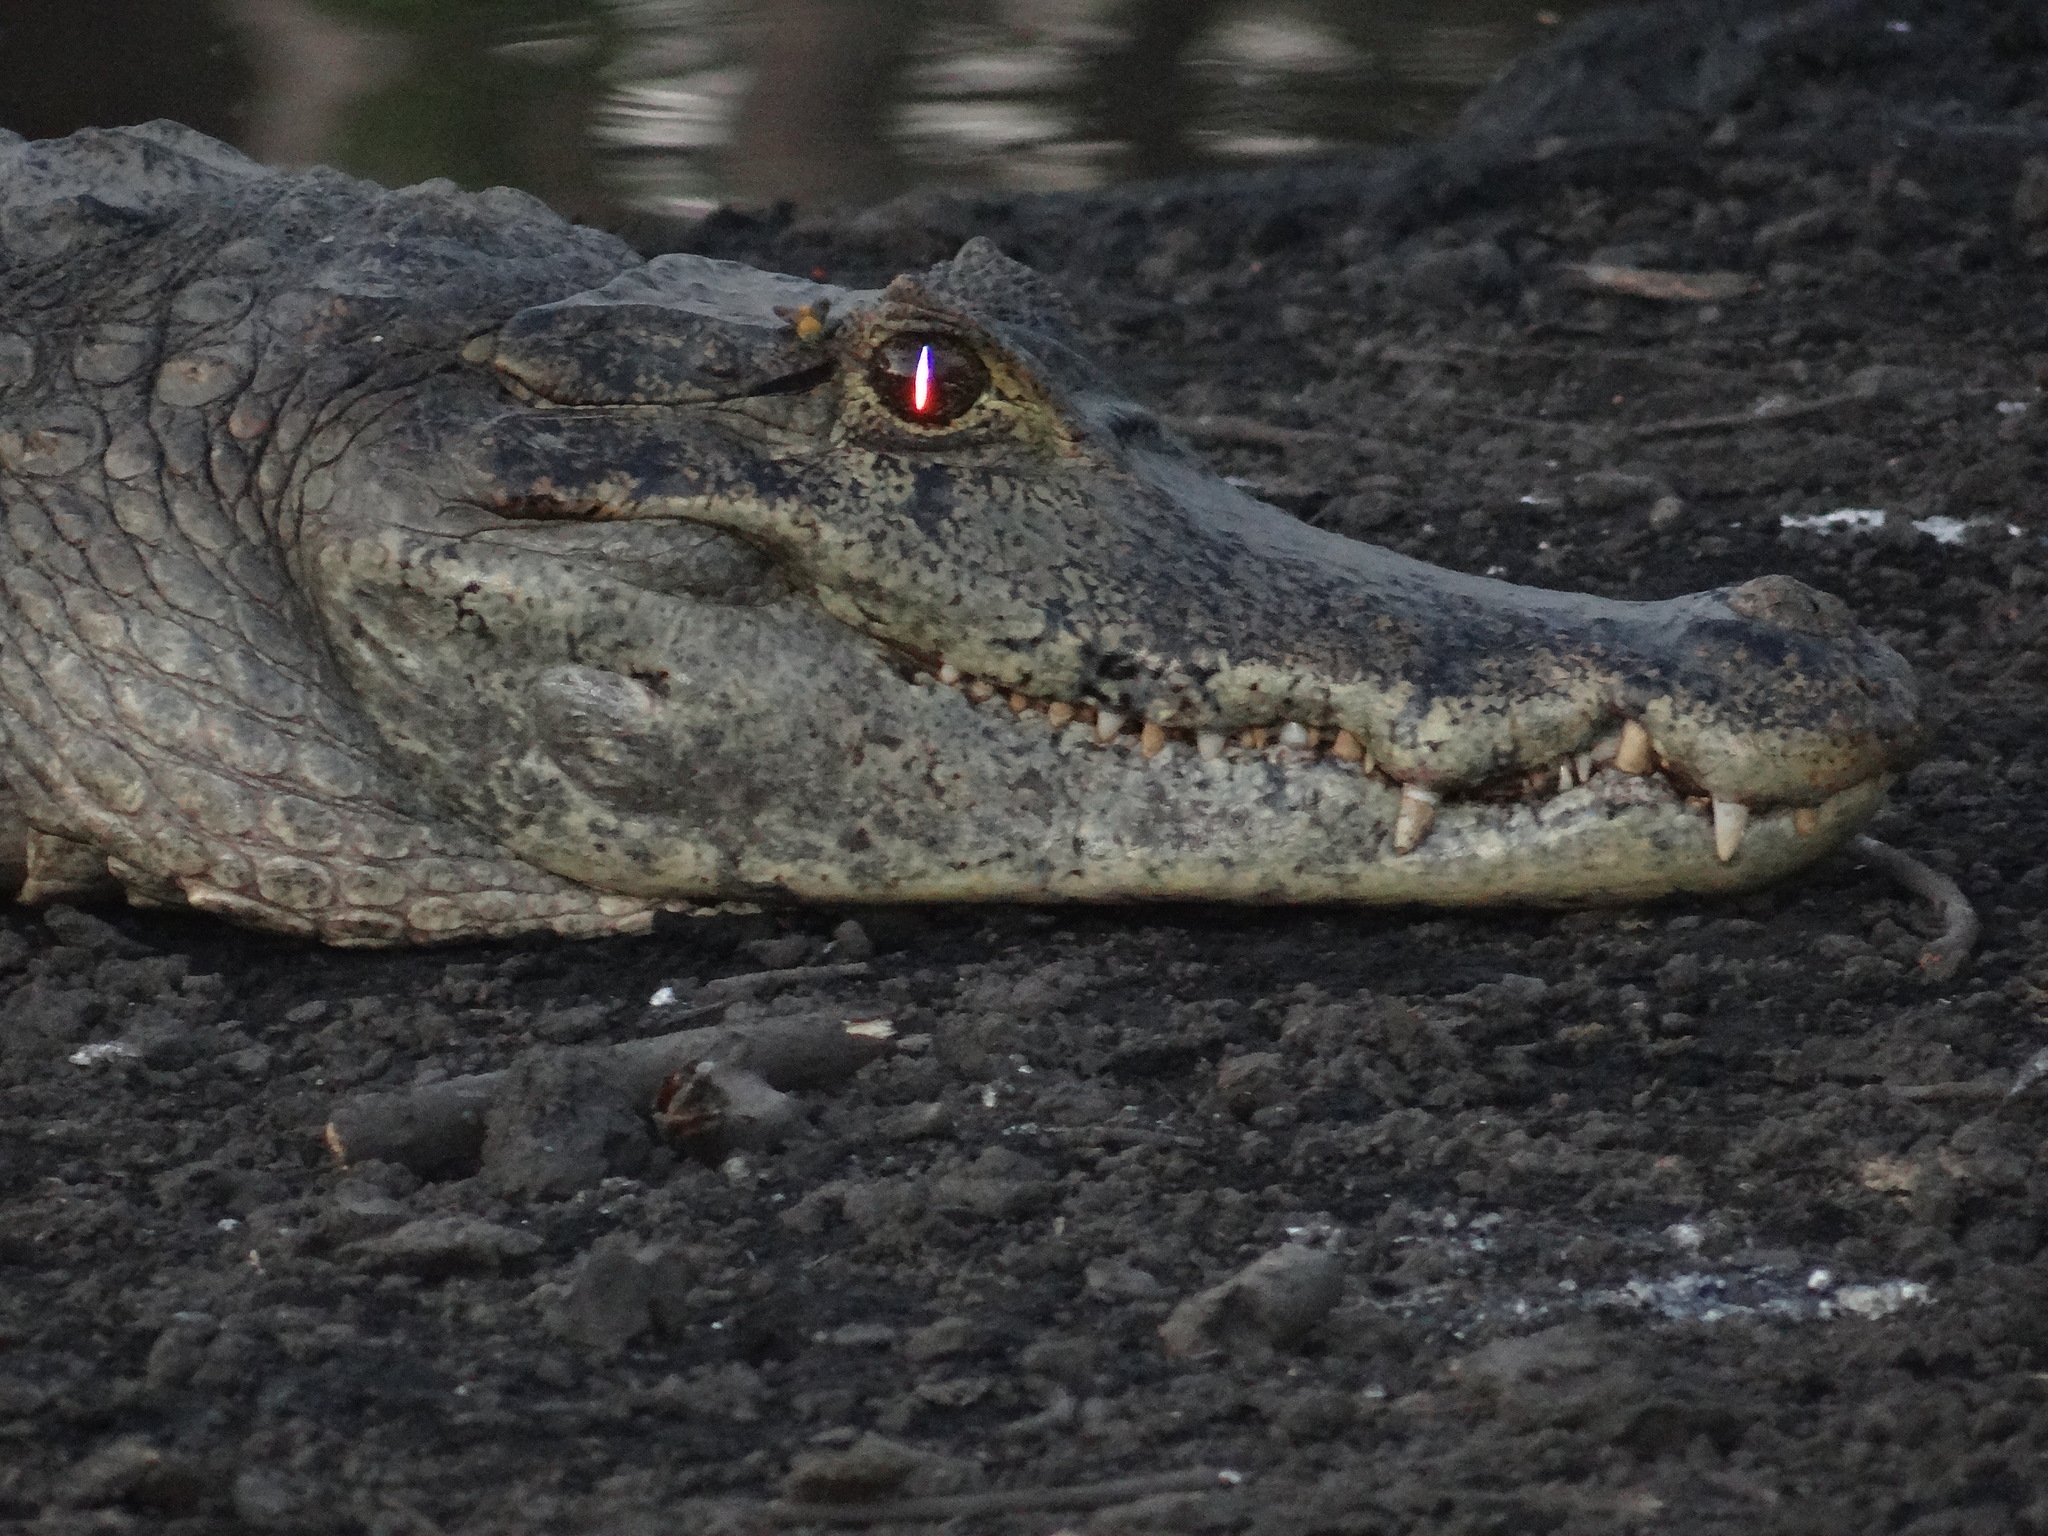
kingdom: Animalia
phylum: Chordata
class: Crocodylia
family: Alligatoridae
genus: Caiman
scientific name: Caiman crocodilus
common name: Common caiman
